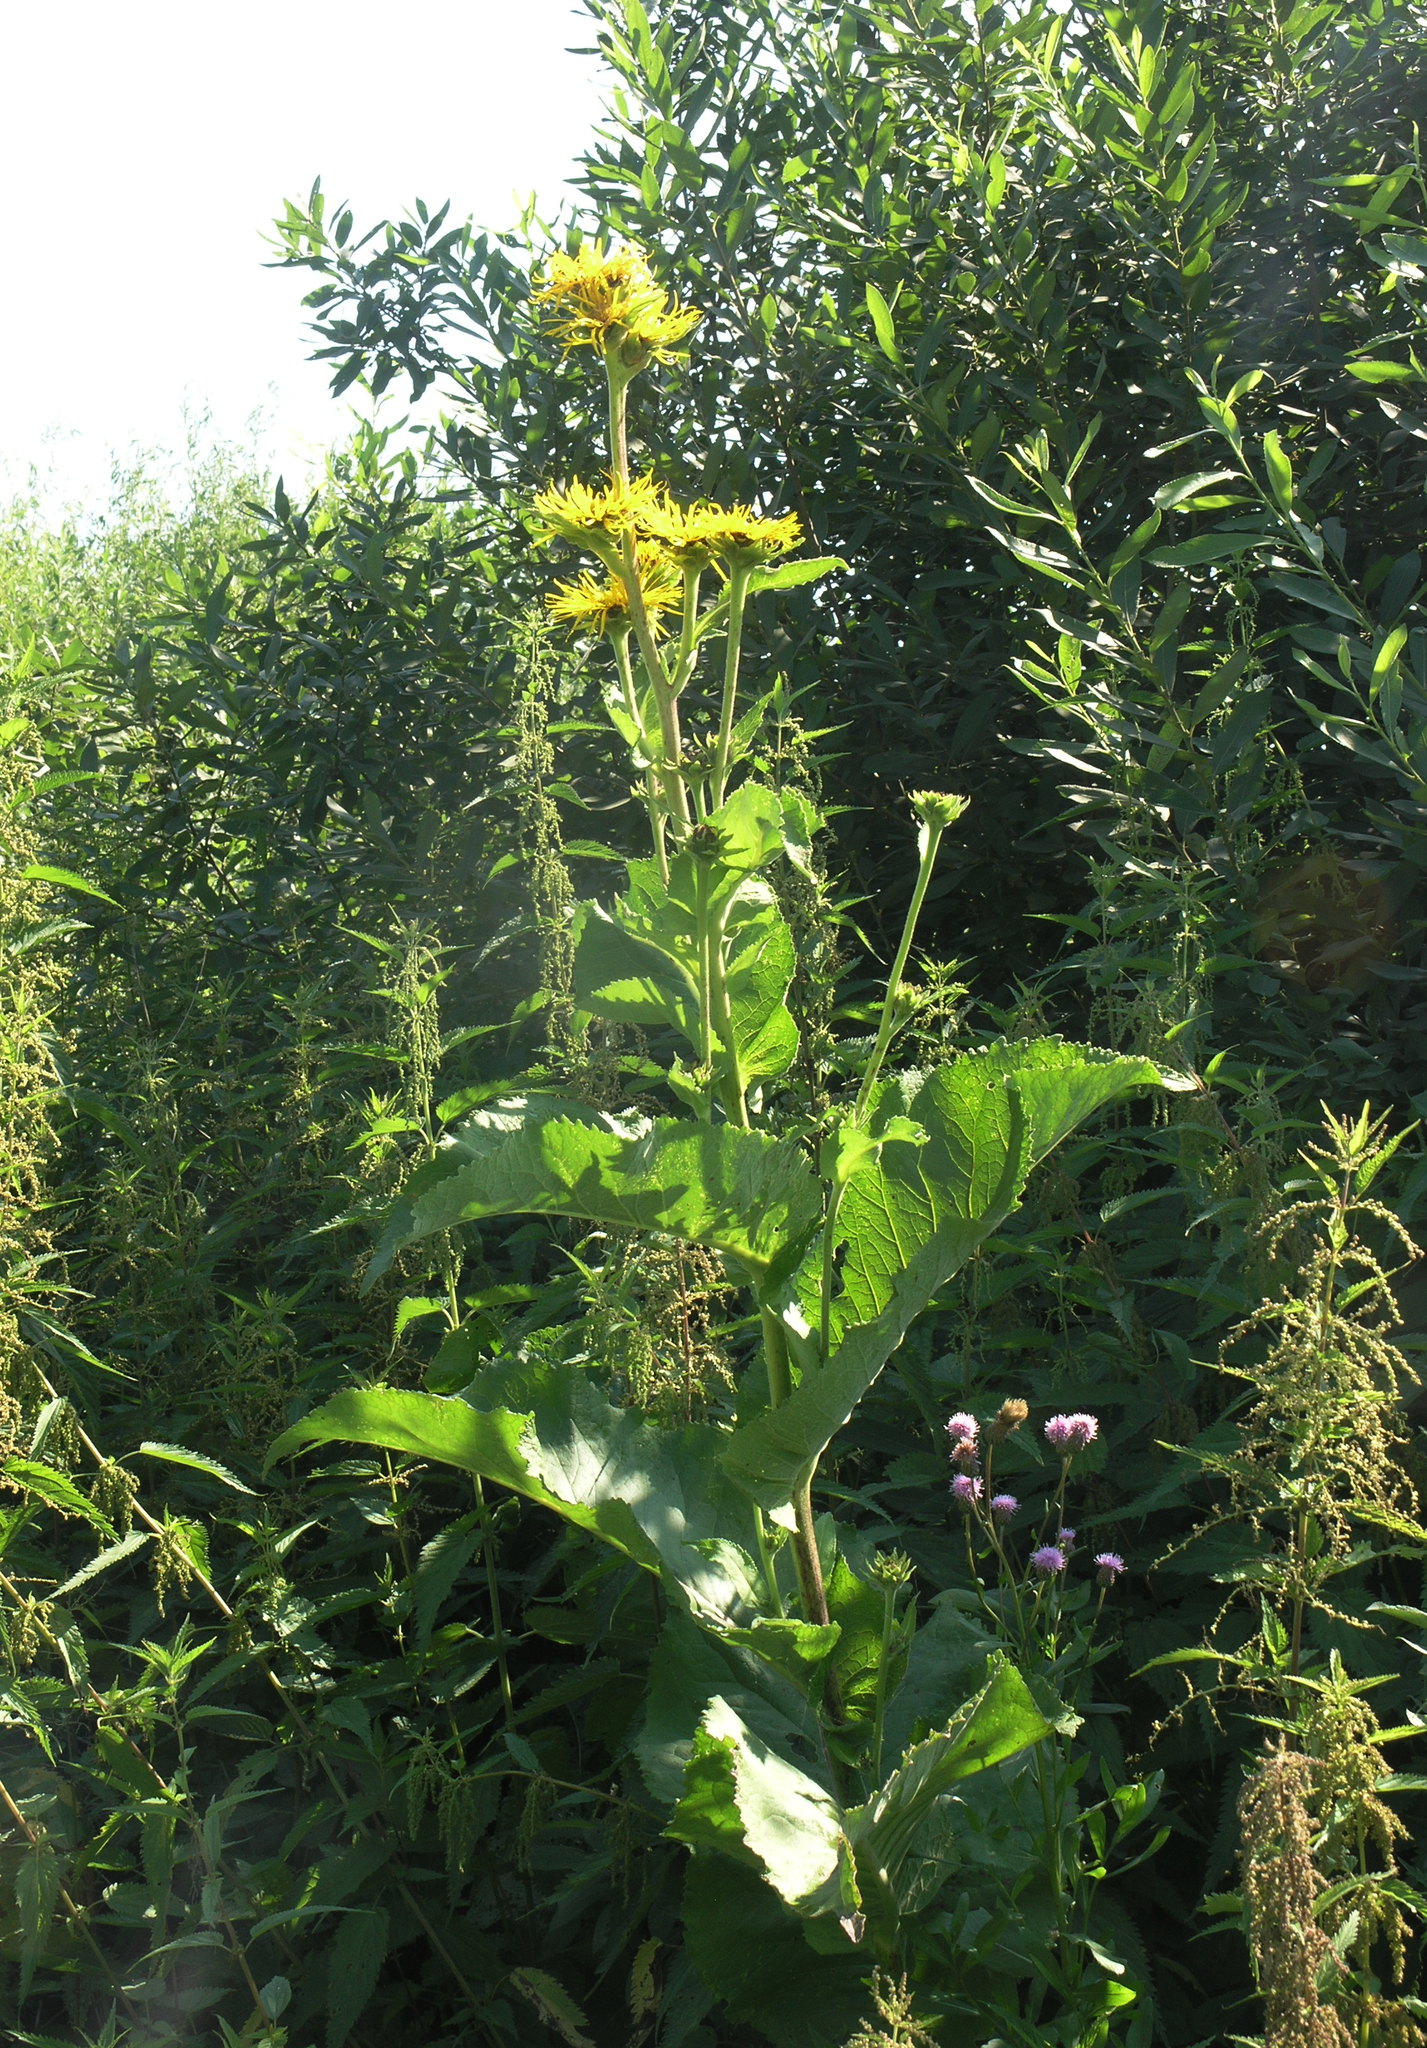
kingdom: Plantae
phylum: Tracheophyta
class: Magnoliopsida
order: Asterales
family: Asteraceae
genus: Inula
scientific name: Inula helenium
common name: Elecampane
